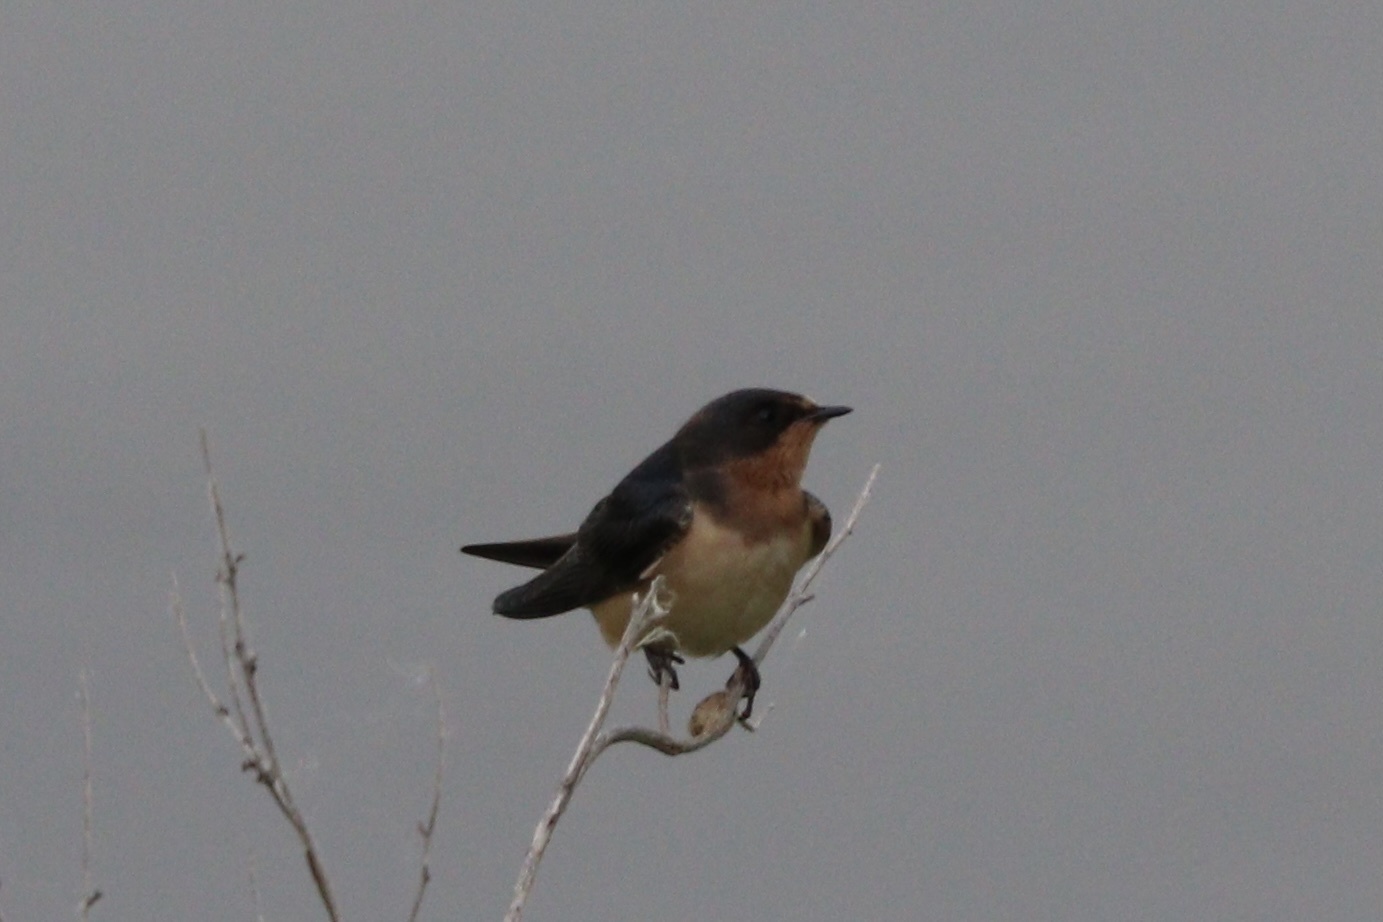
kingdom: Animalia
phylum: Chordata
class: Aves
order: Passeriformes
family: Hirundinidae
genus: Hirundo
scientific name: Hirundo rustica
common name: Barn swallow
